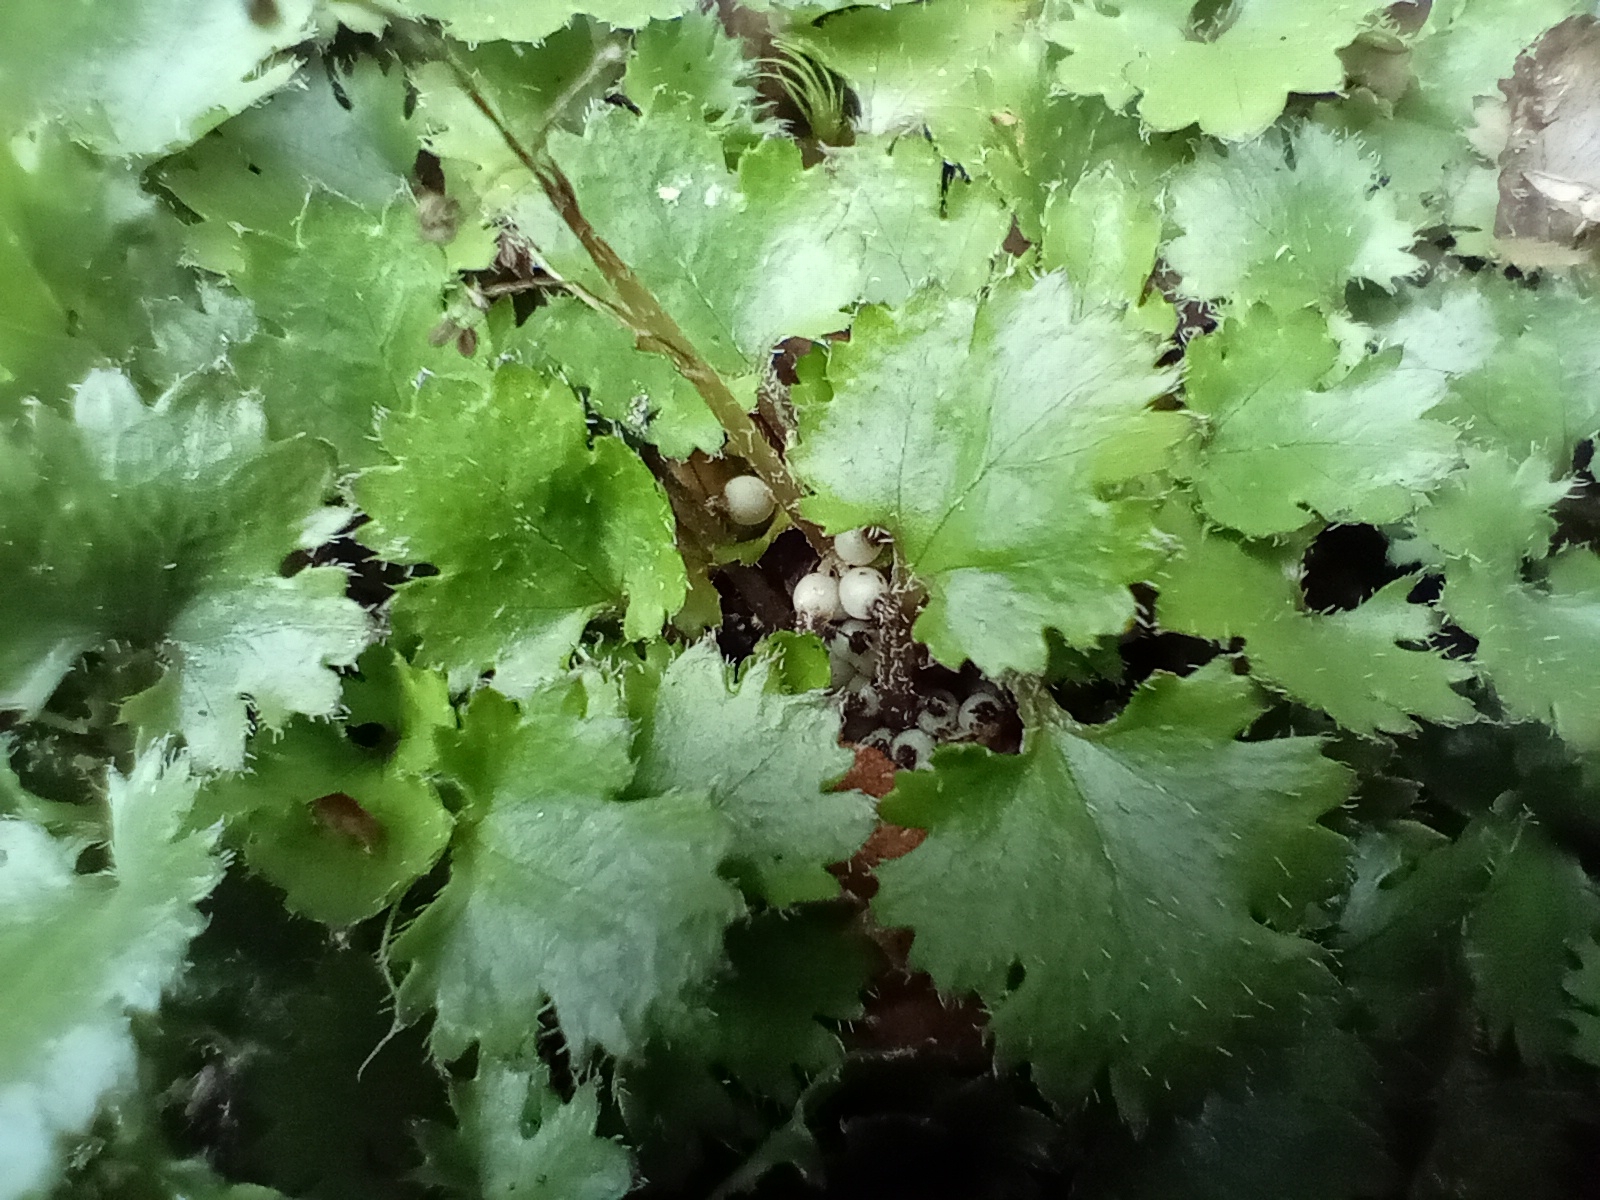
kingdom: Plantae
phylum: Tracheophyta
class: Magnoliopsida
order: Gunnerales
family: Gunneraceae
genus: Gunnera
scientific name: Gunnera monoica
